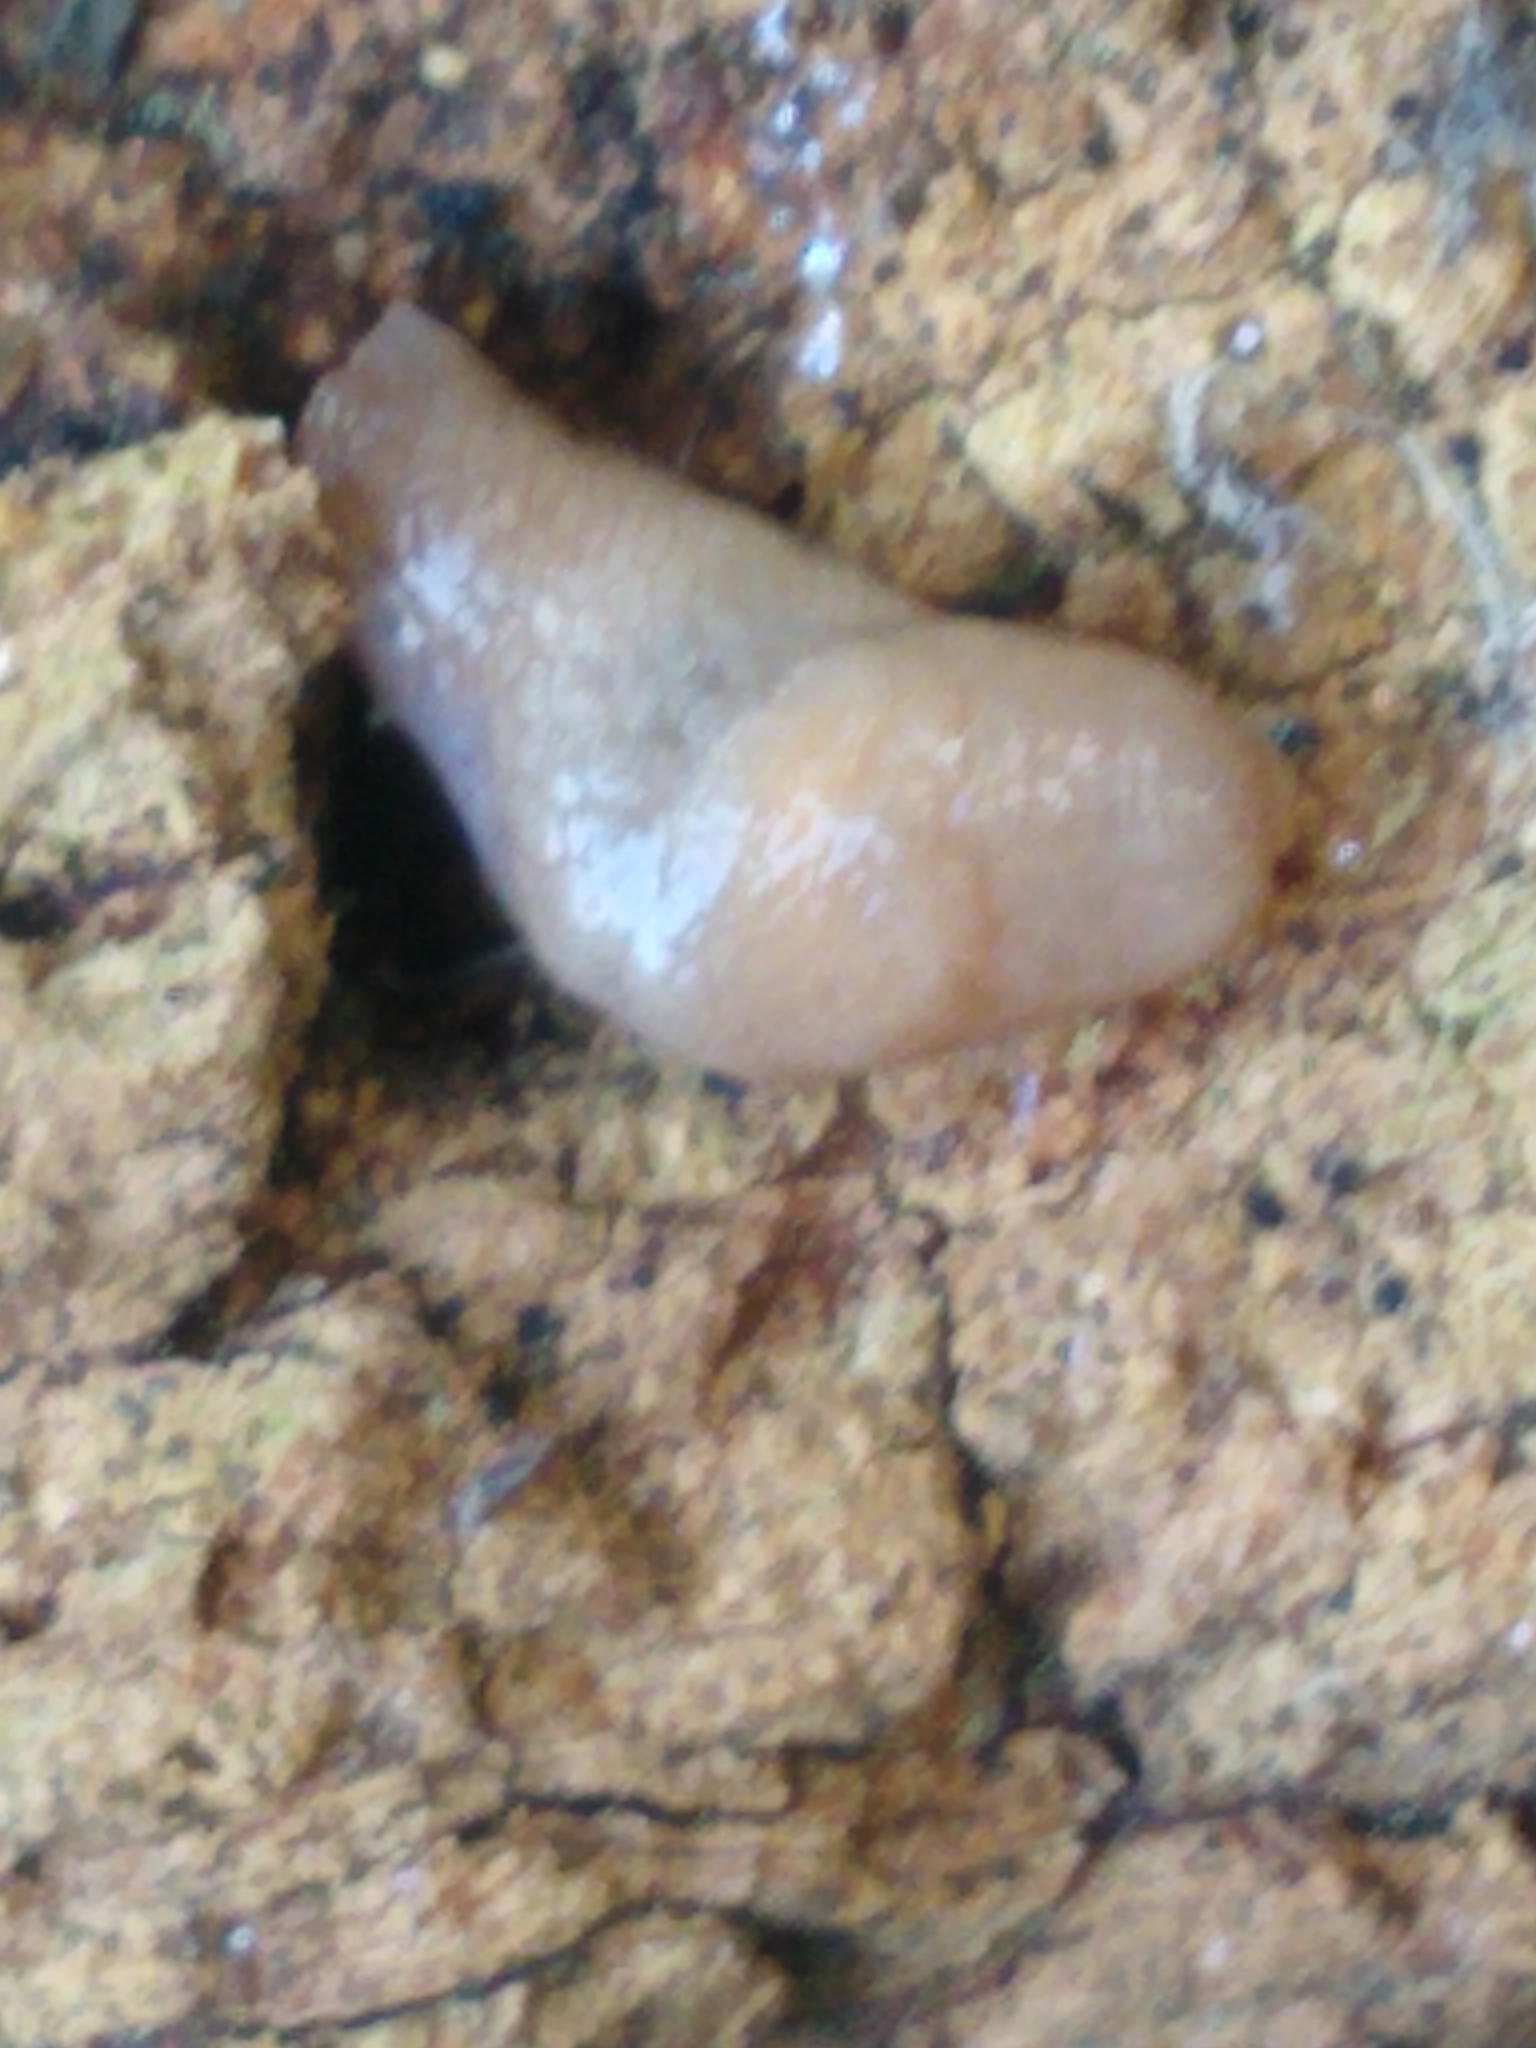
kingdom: Animalia
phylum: Mollusca
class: Gastropoda
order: Stylommatophora
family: Agriolimacidae
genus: Deroceras
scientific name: Deroceras reticulatum
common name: Gray field slug
